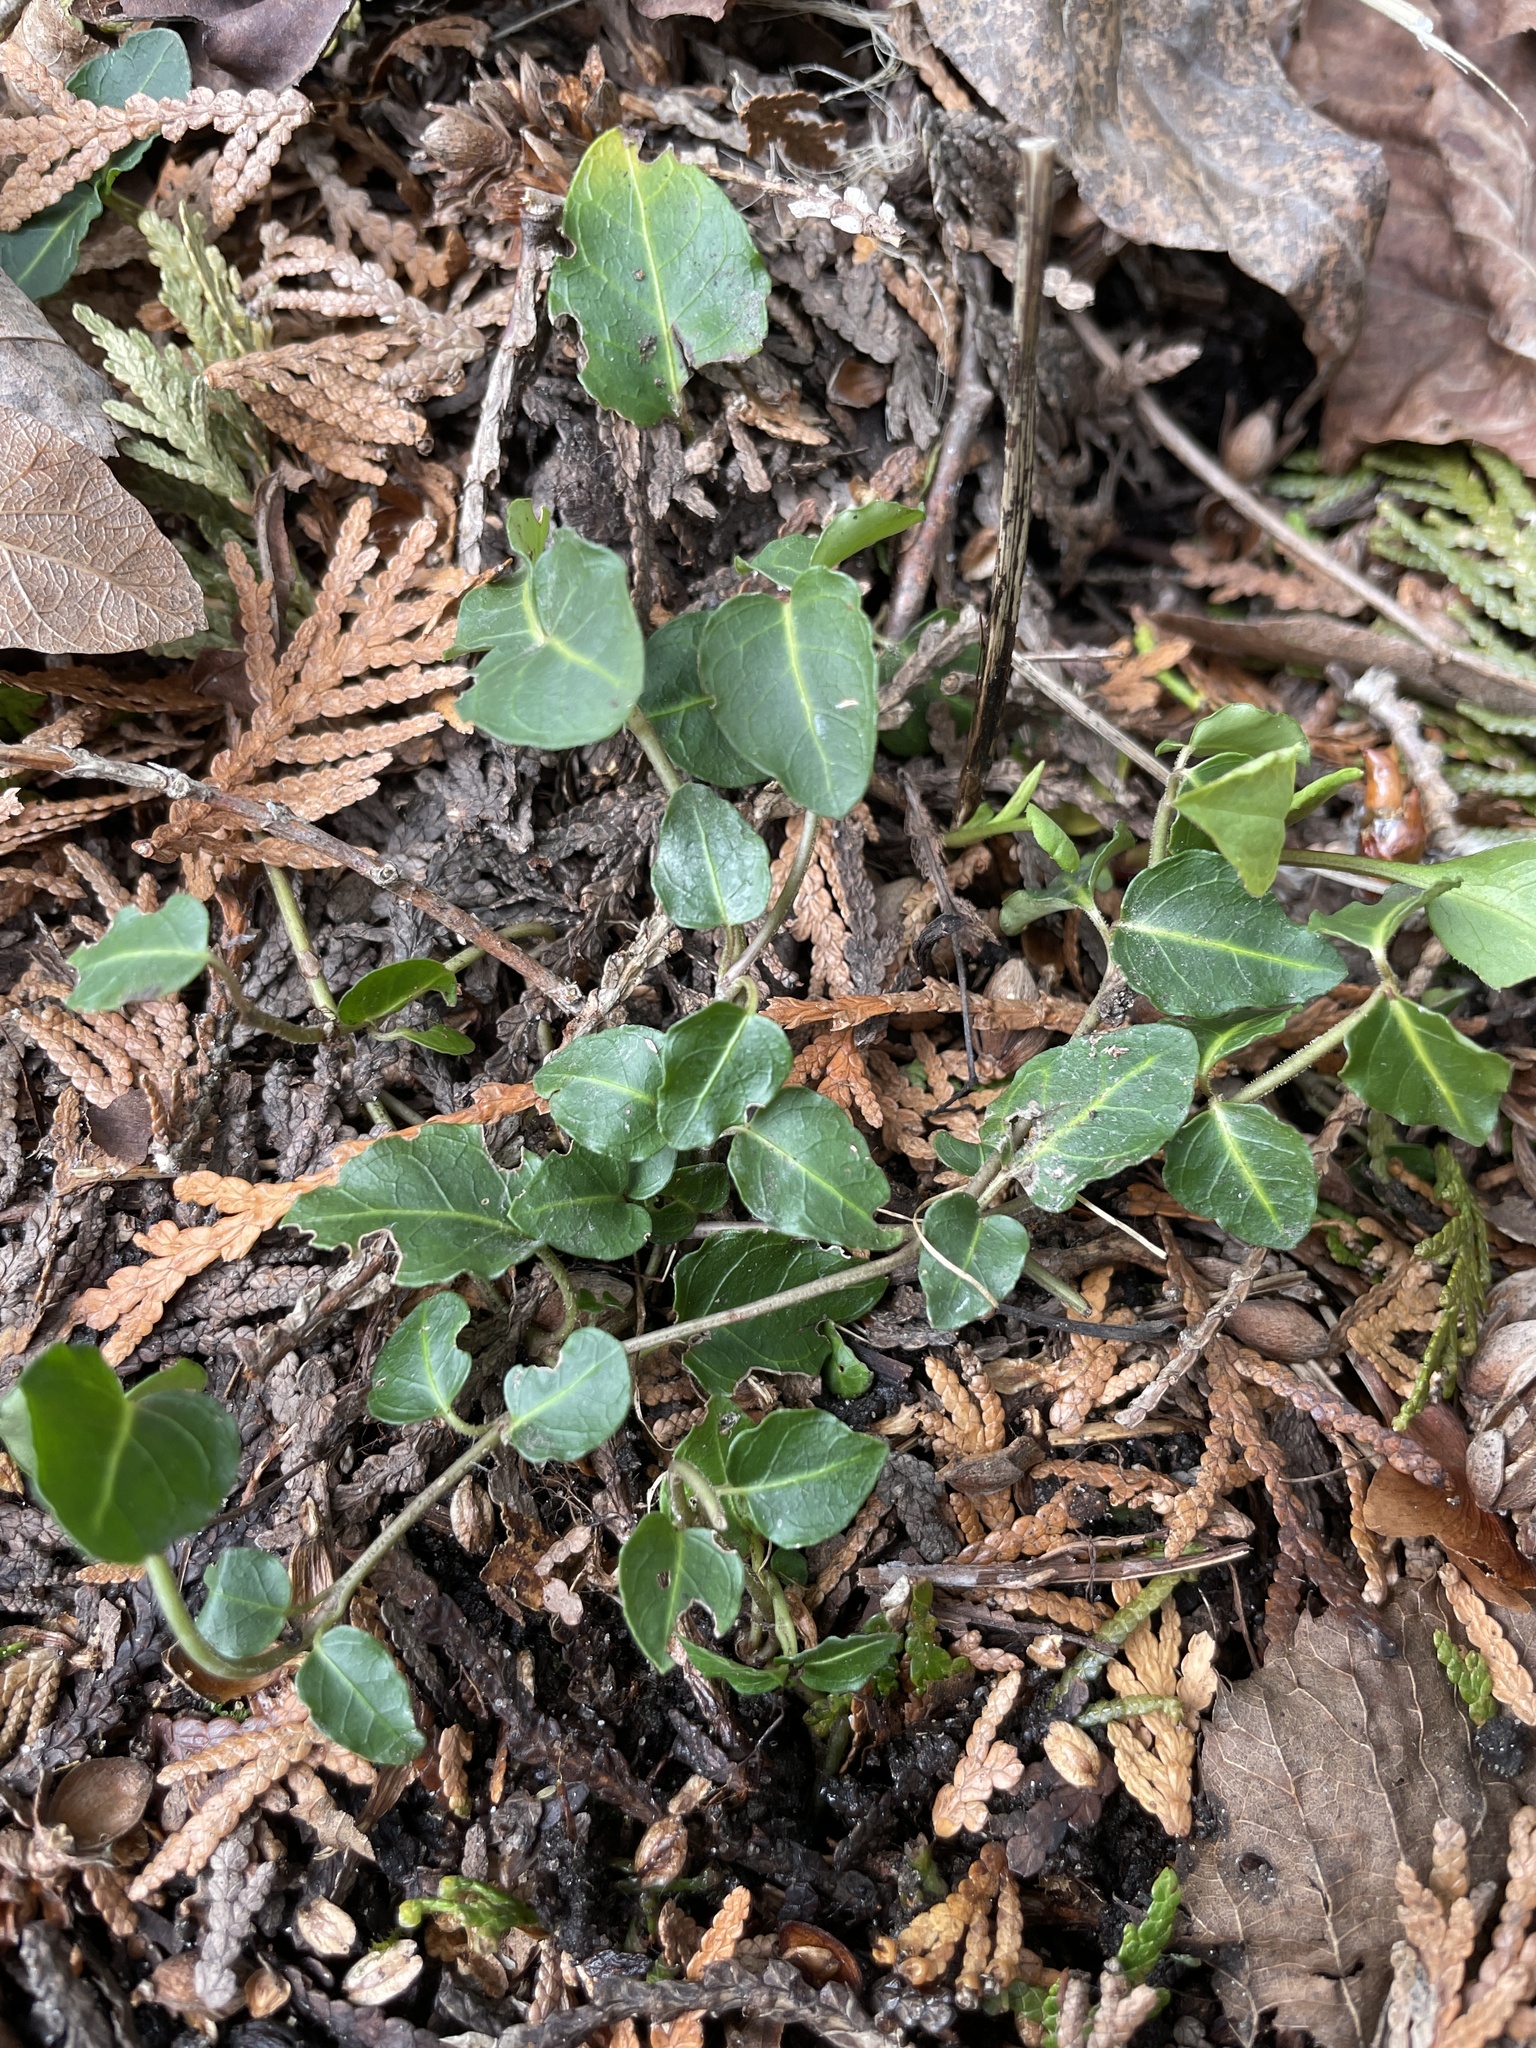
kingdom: Plantae
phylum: Tracheophyta
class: Magnoliopsida
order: Gentianales
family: Rubiaceae
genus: Mitchella
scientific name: Mitchella repens
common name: Partridge-berry
